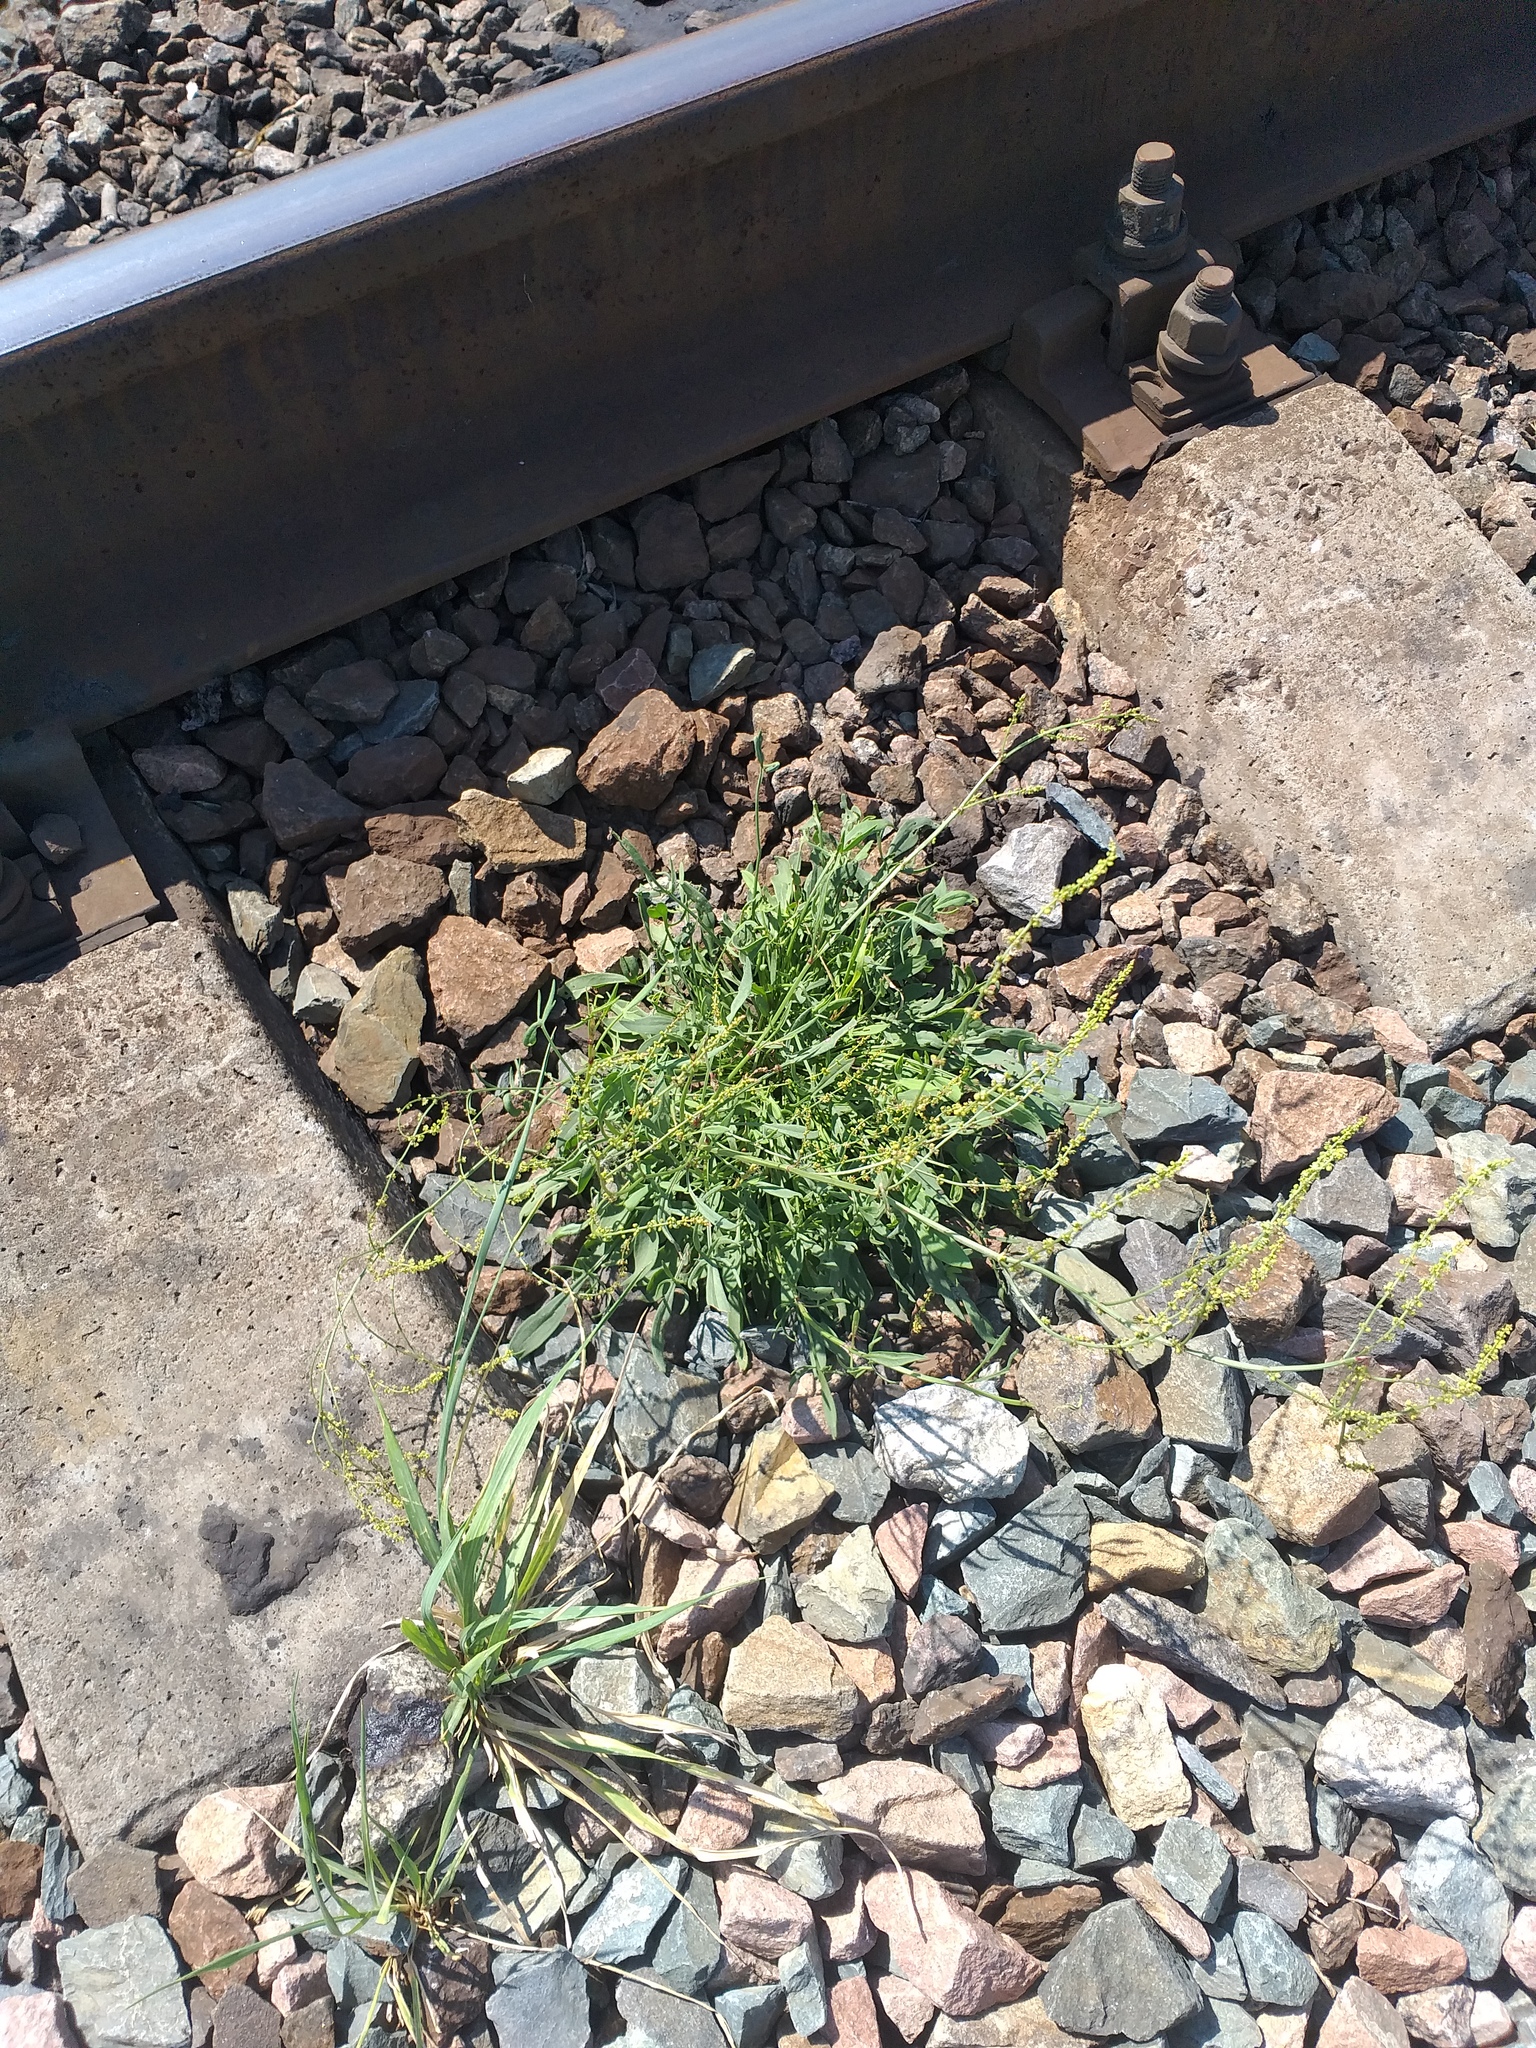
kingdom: Plantae
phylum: Tracheophyta
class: Magnoliopsida
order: Caryophyllales
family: Polygonaceae
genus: Rumex
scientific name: Rumex acetosella
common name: Common sheep sorrel
